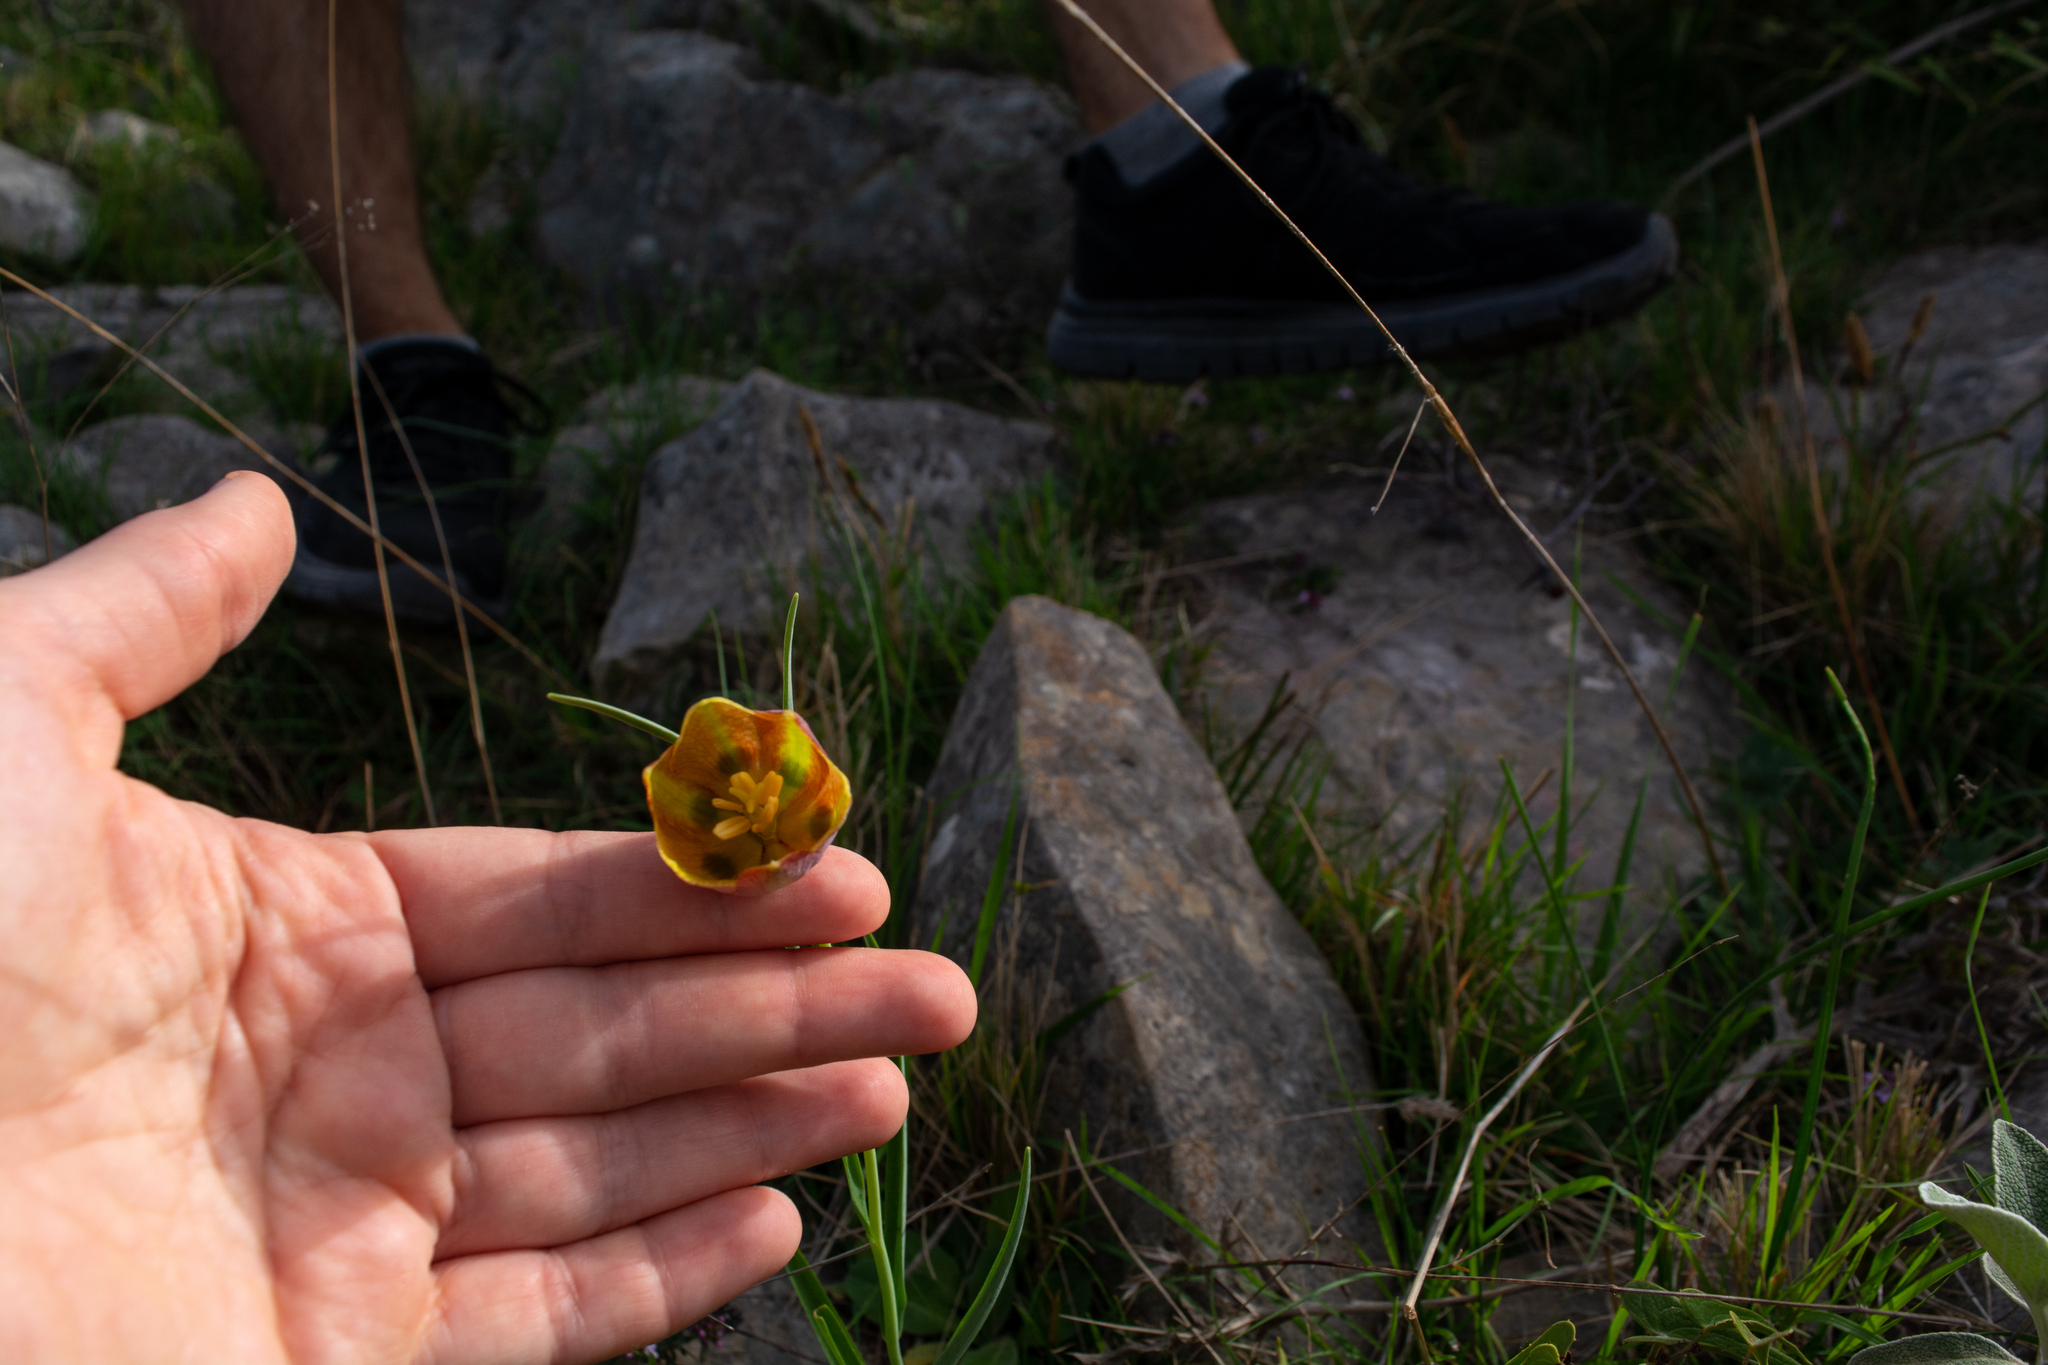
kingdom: Plantae
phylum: Tracheophyta
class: Liliopsida
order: Liliales
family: Liliaceae
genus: Fritillaria
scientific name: Fritillaria messanensis
